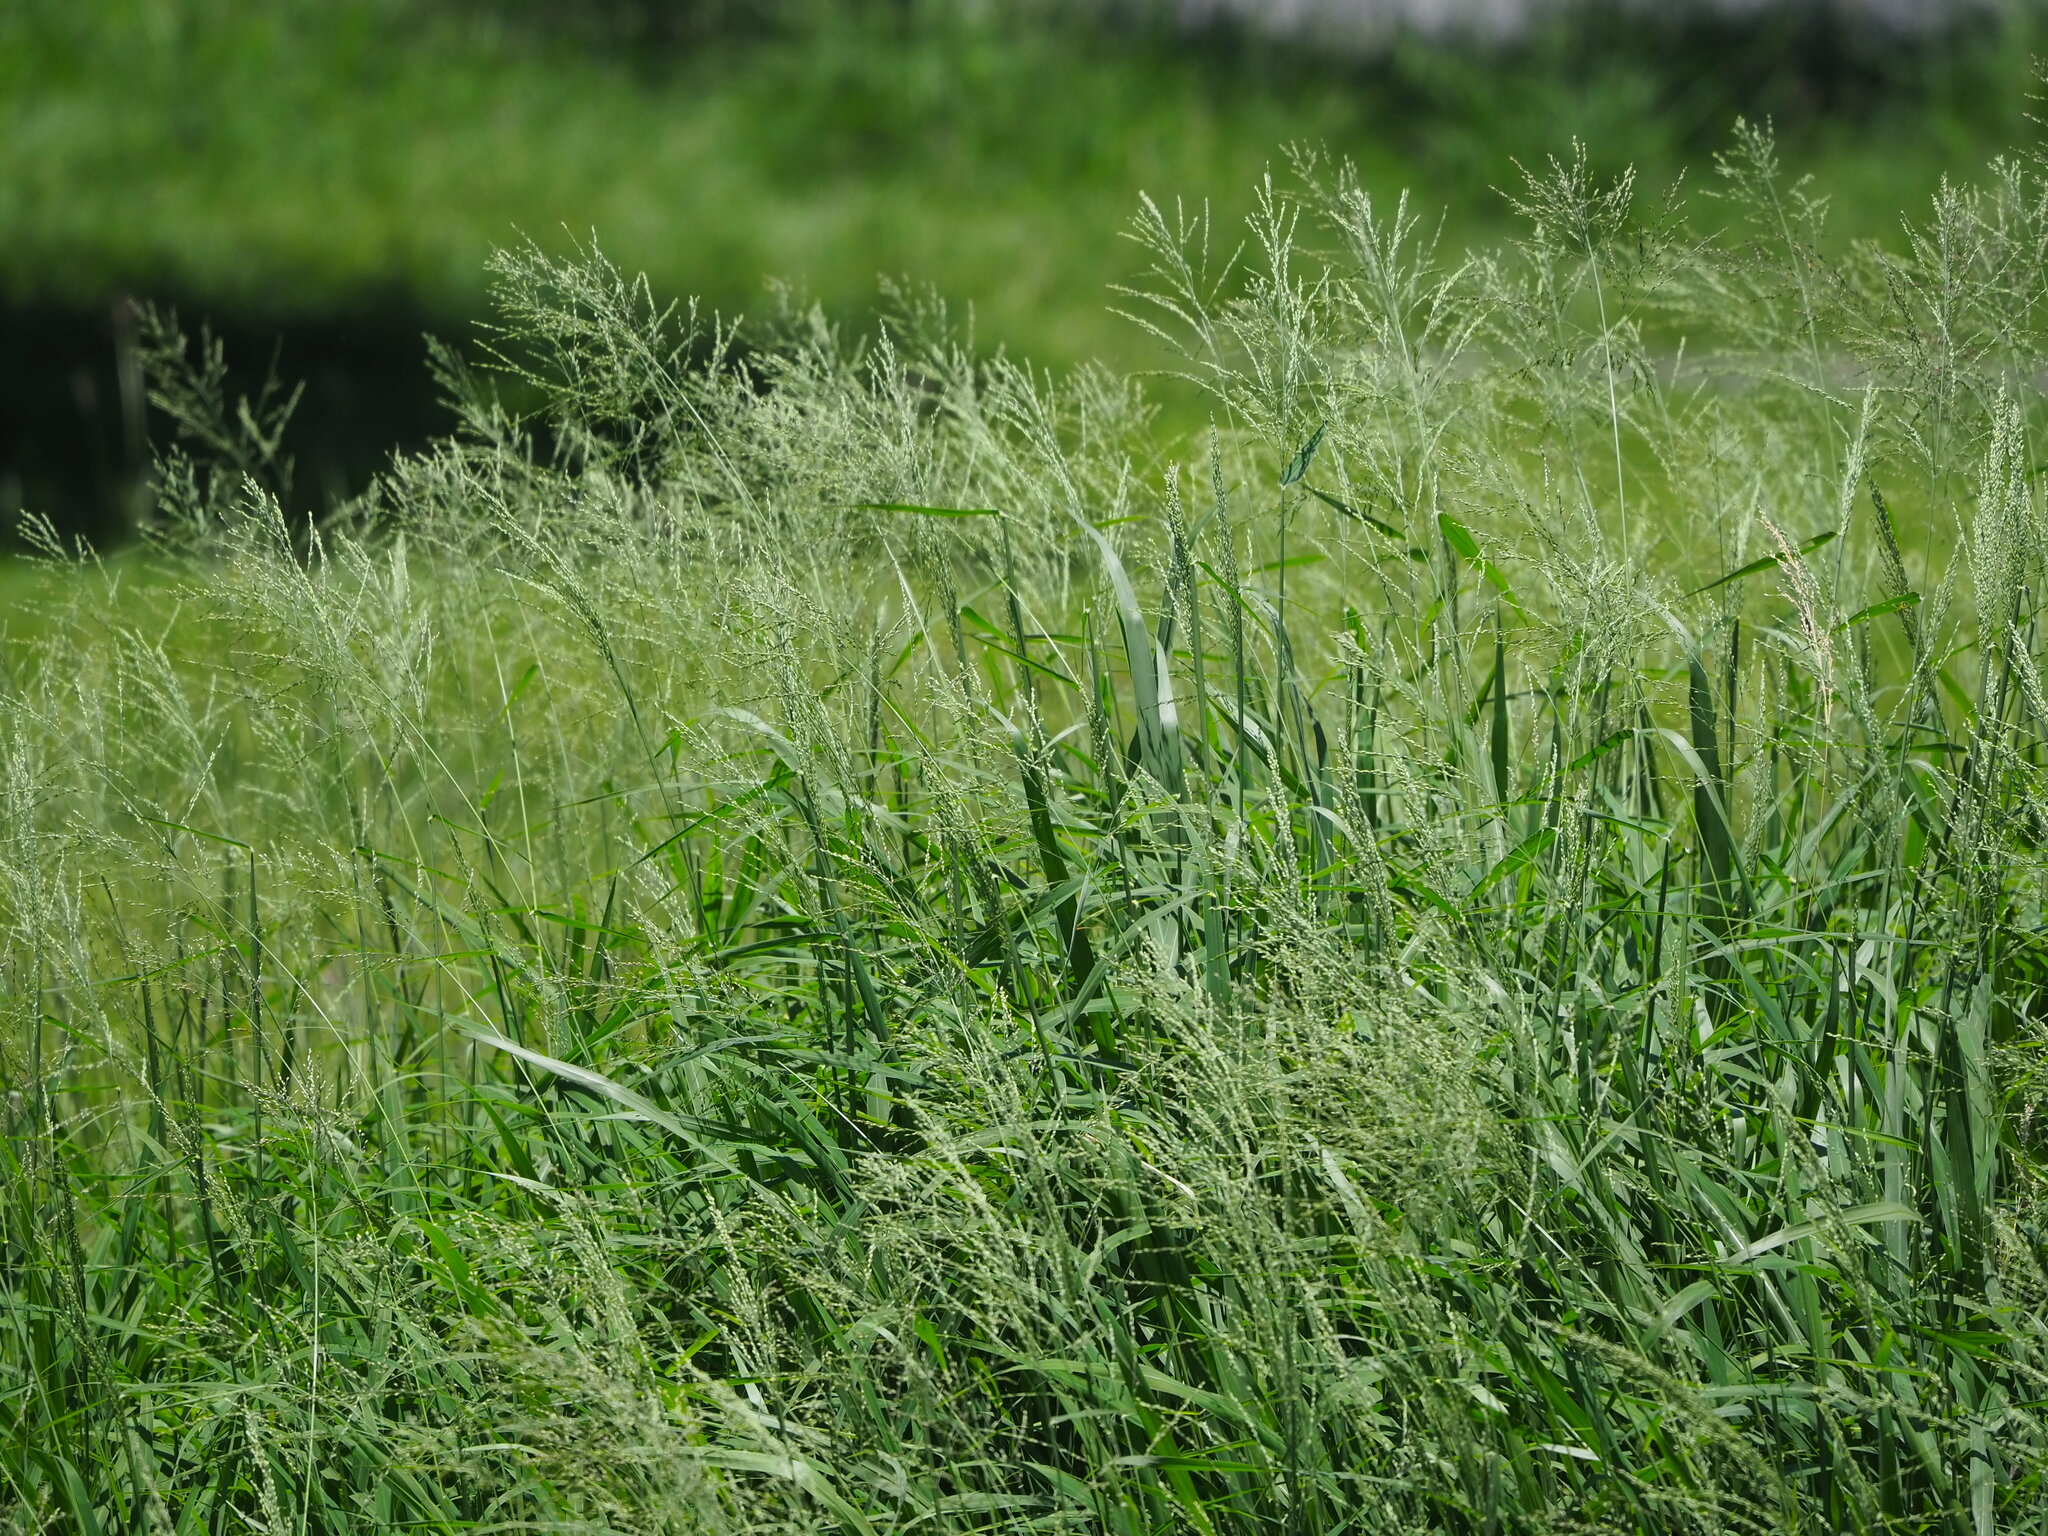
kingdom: Plantae
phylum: Tracheophyta
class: Liliopsida
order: Poales
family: Poaceae
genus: Megathyrsus
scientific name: Megathyrsus maximus
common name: Guineagrass
